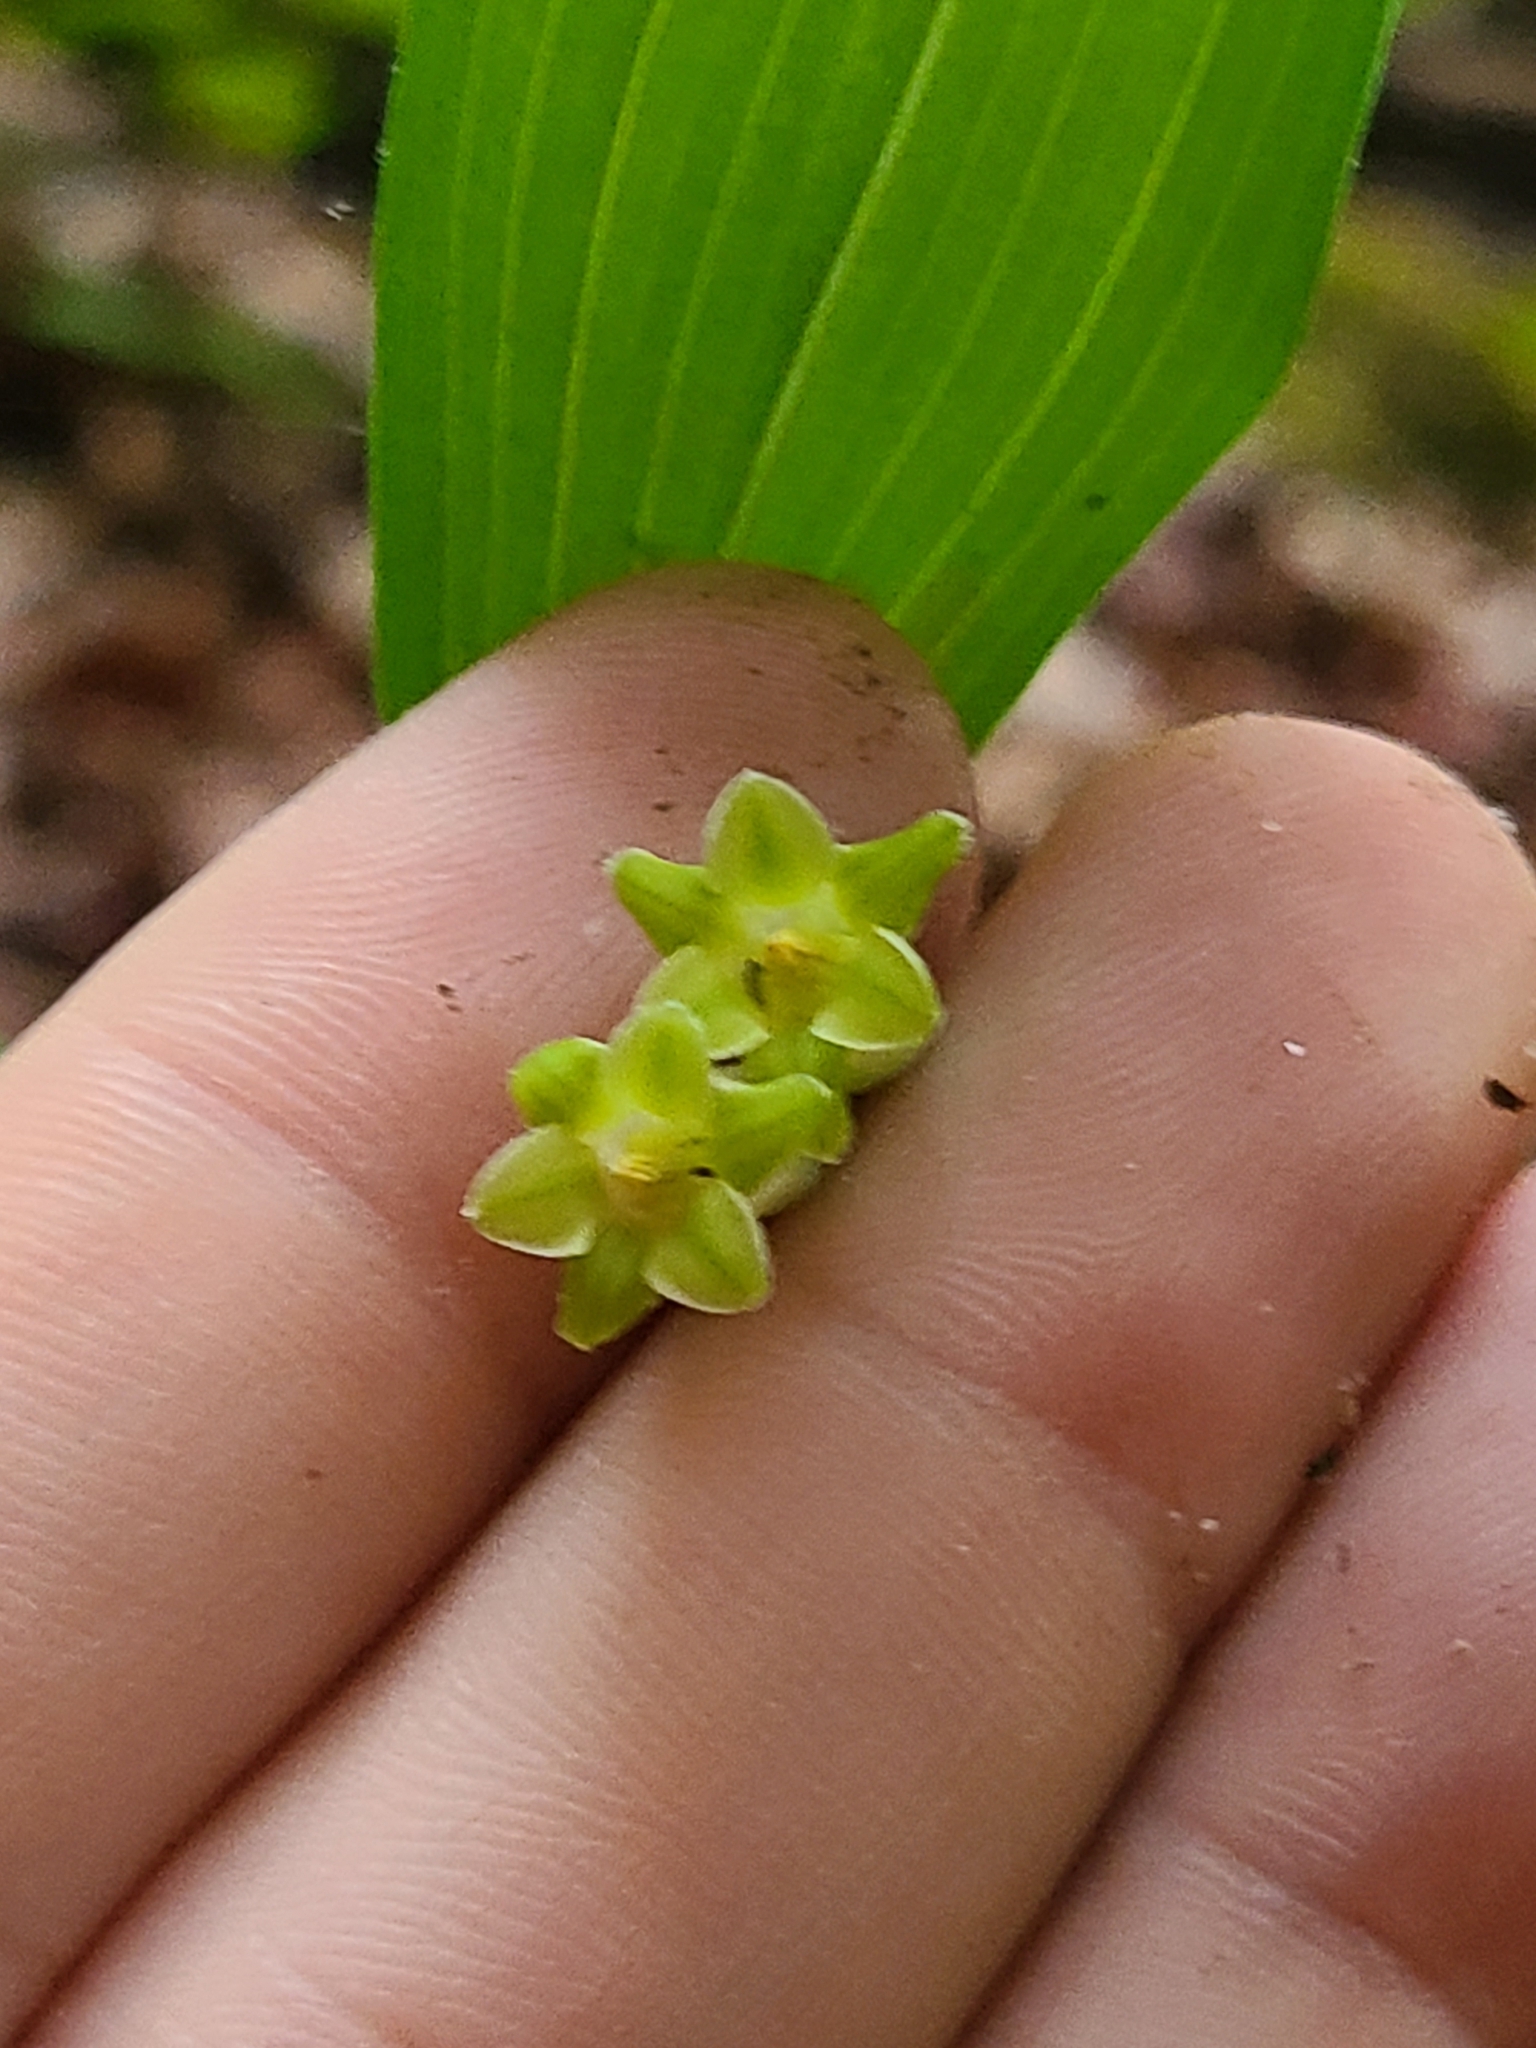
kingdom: Plantae
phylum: Tracheophyta
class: Liliopsida
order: Asparagales
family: Asparagaceae
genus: Polygonatum
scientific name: Polygonatum biflorum
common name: American solomon's-seal
